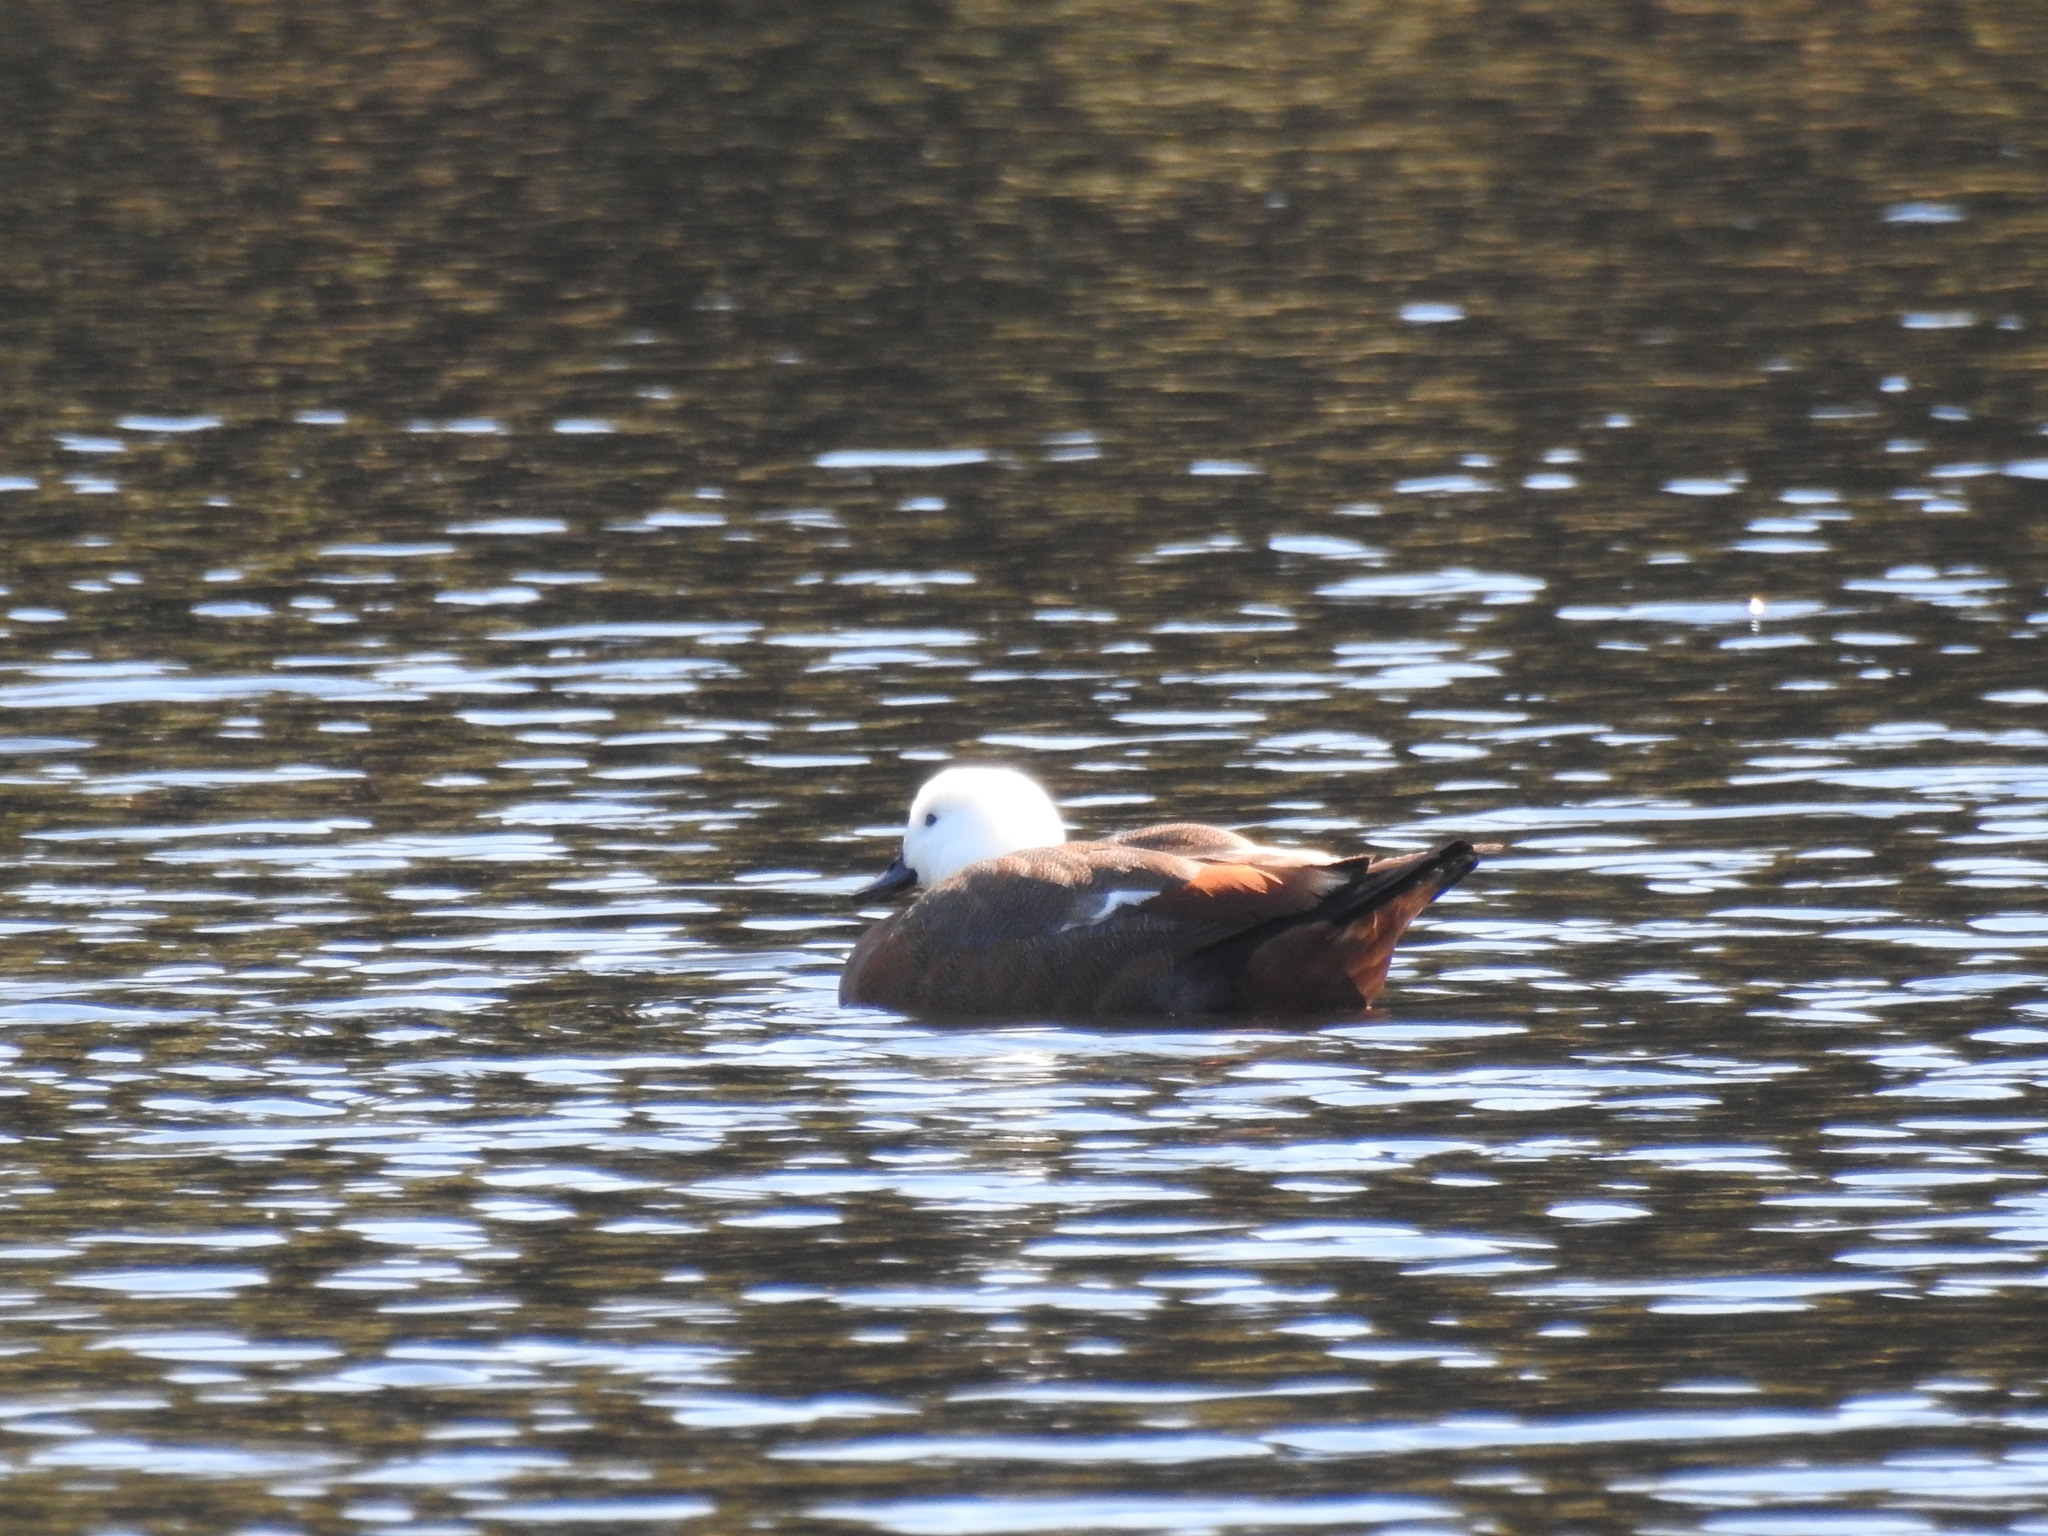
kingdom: Animalia
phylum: Chordata
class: Aves
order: Anseriformes
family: Anatidae
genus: Tadorna
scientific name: Tadorna variegata
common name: Paradise shelduck
